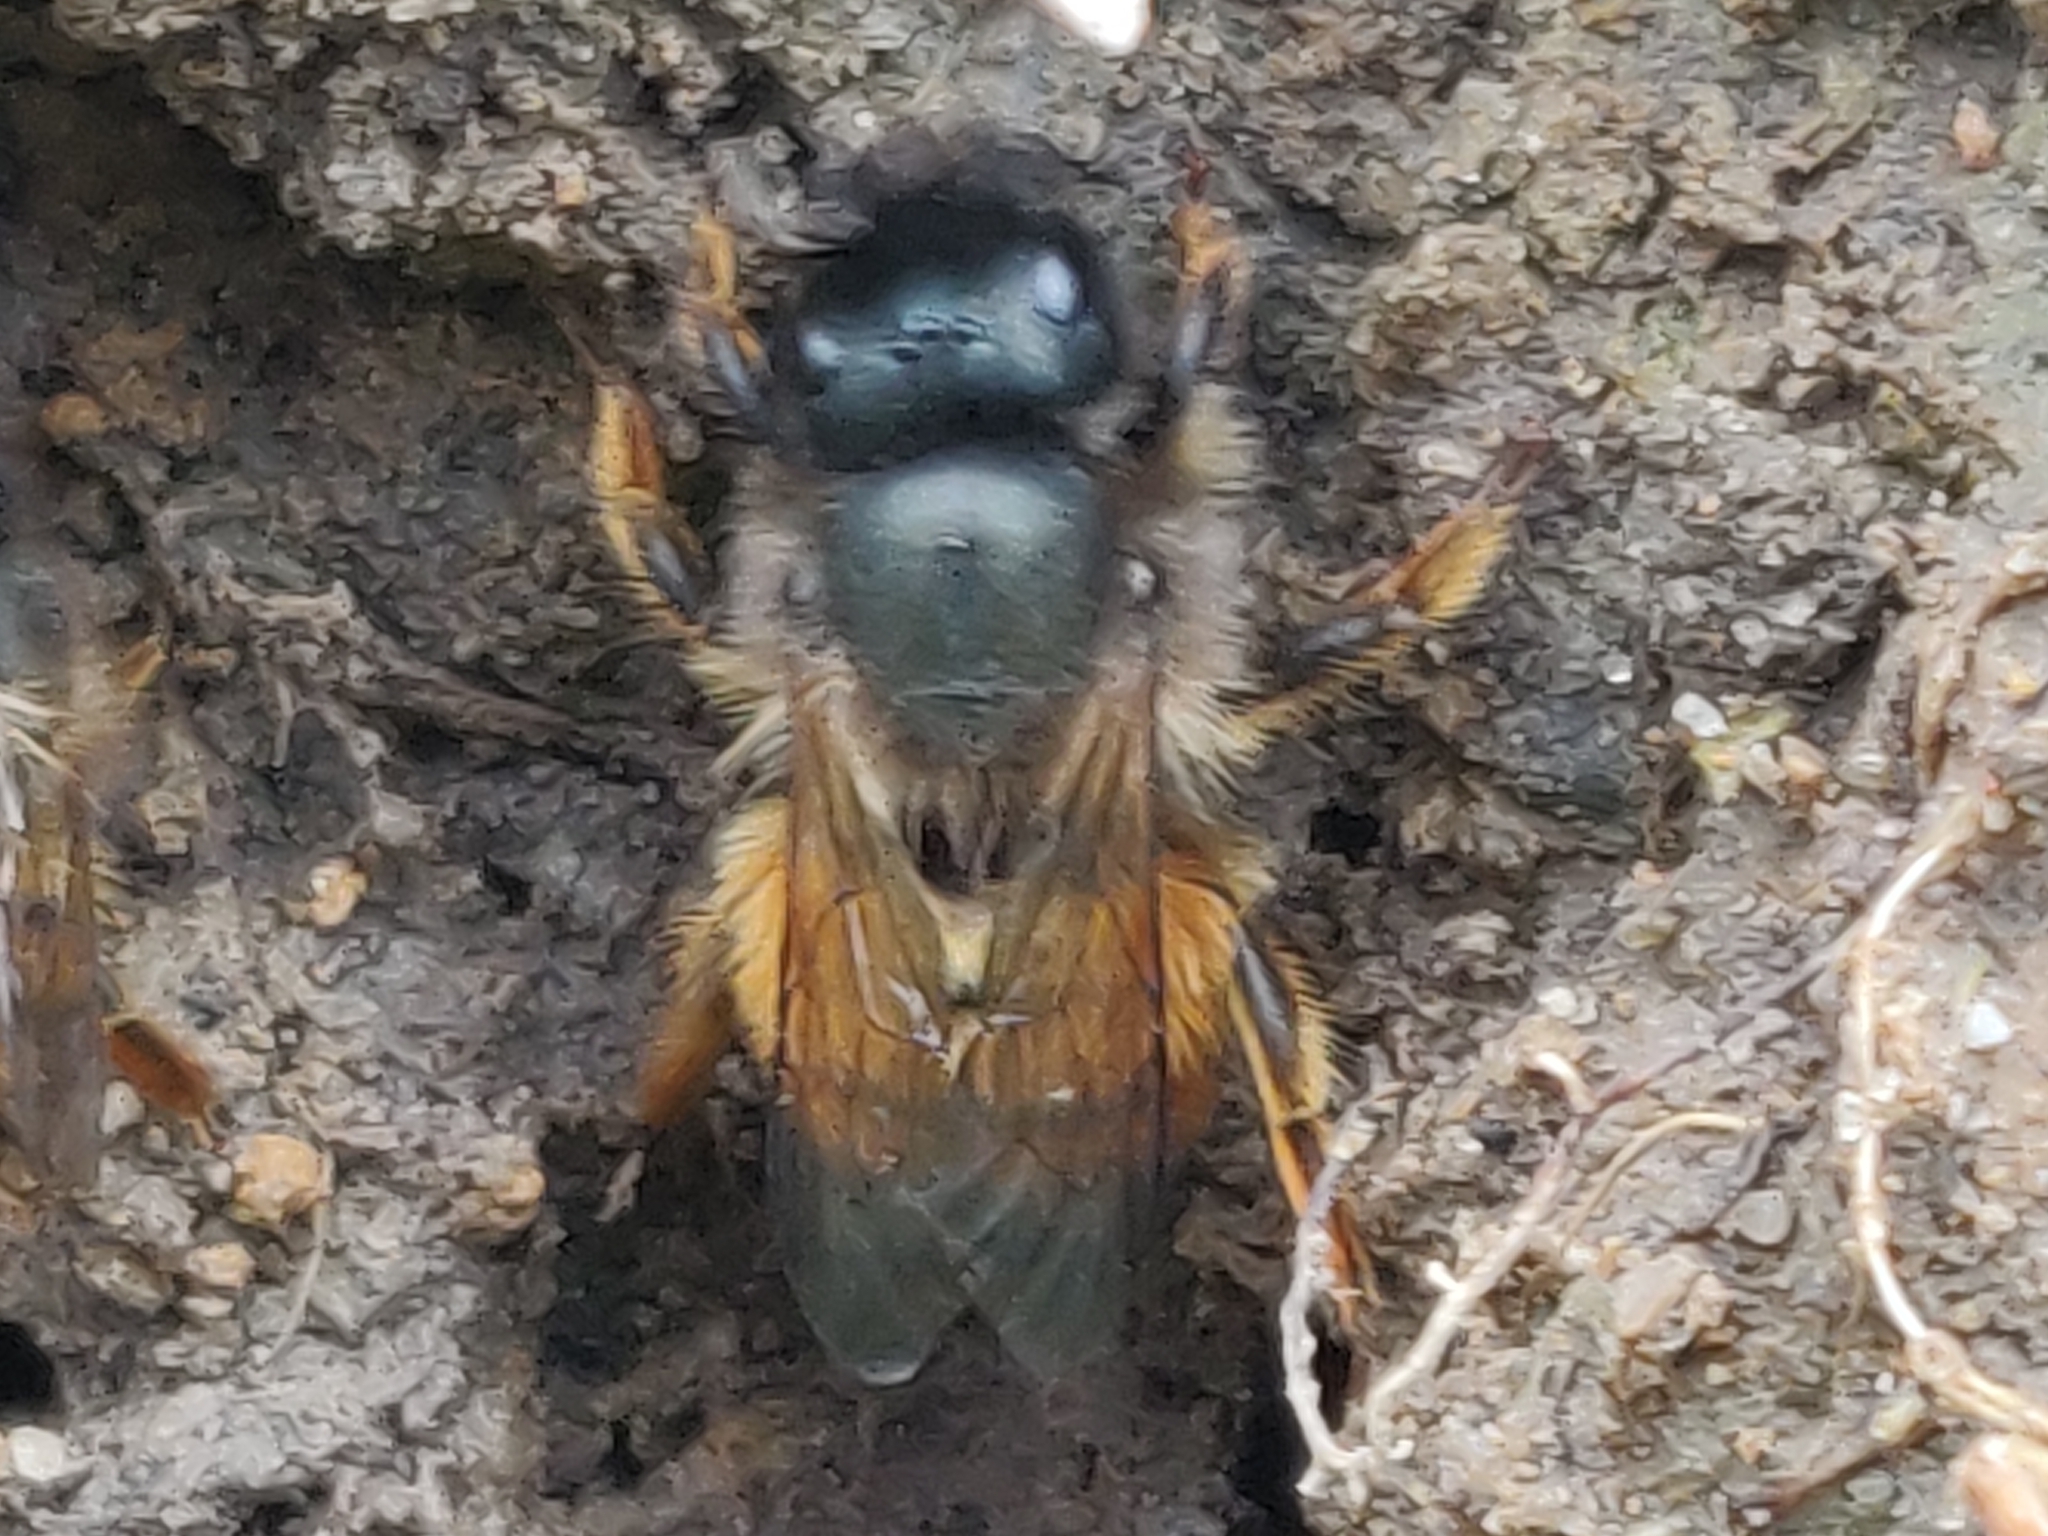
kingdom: Animalia
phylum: Arthropoda
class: Insecta
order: Hymenoptera
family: Megachilidae
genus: Osmia
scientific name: Osmia bicornis
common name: Red mason bee
